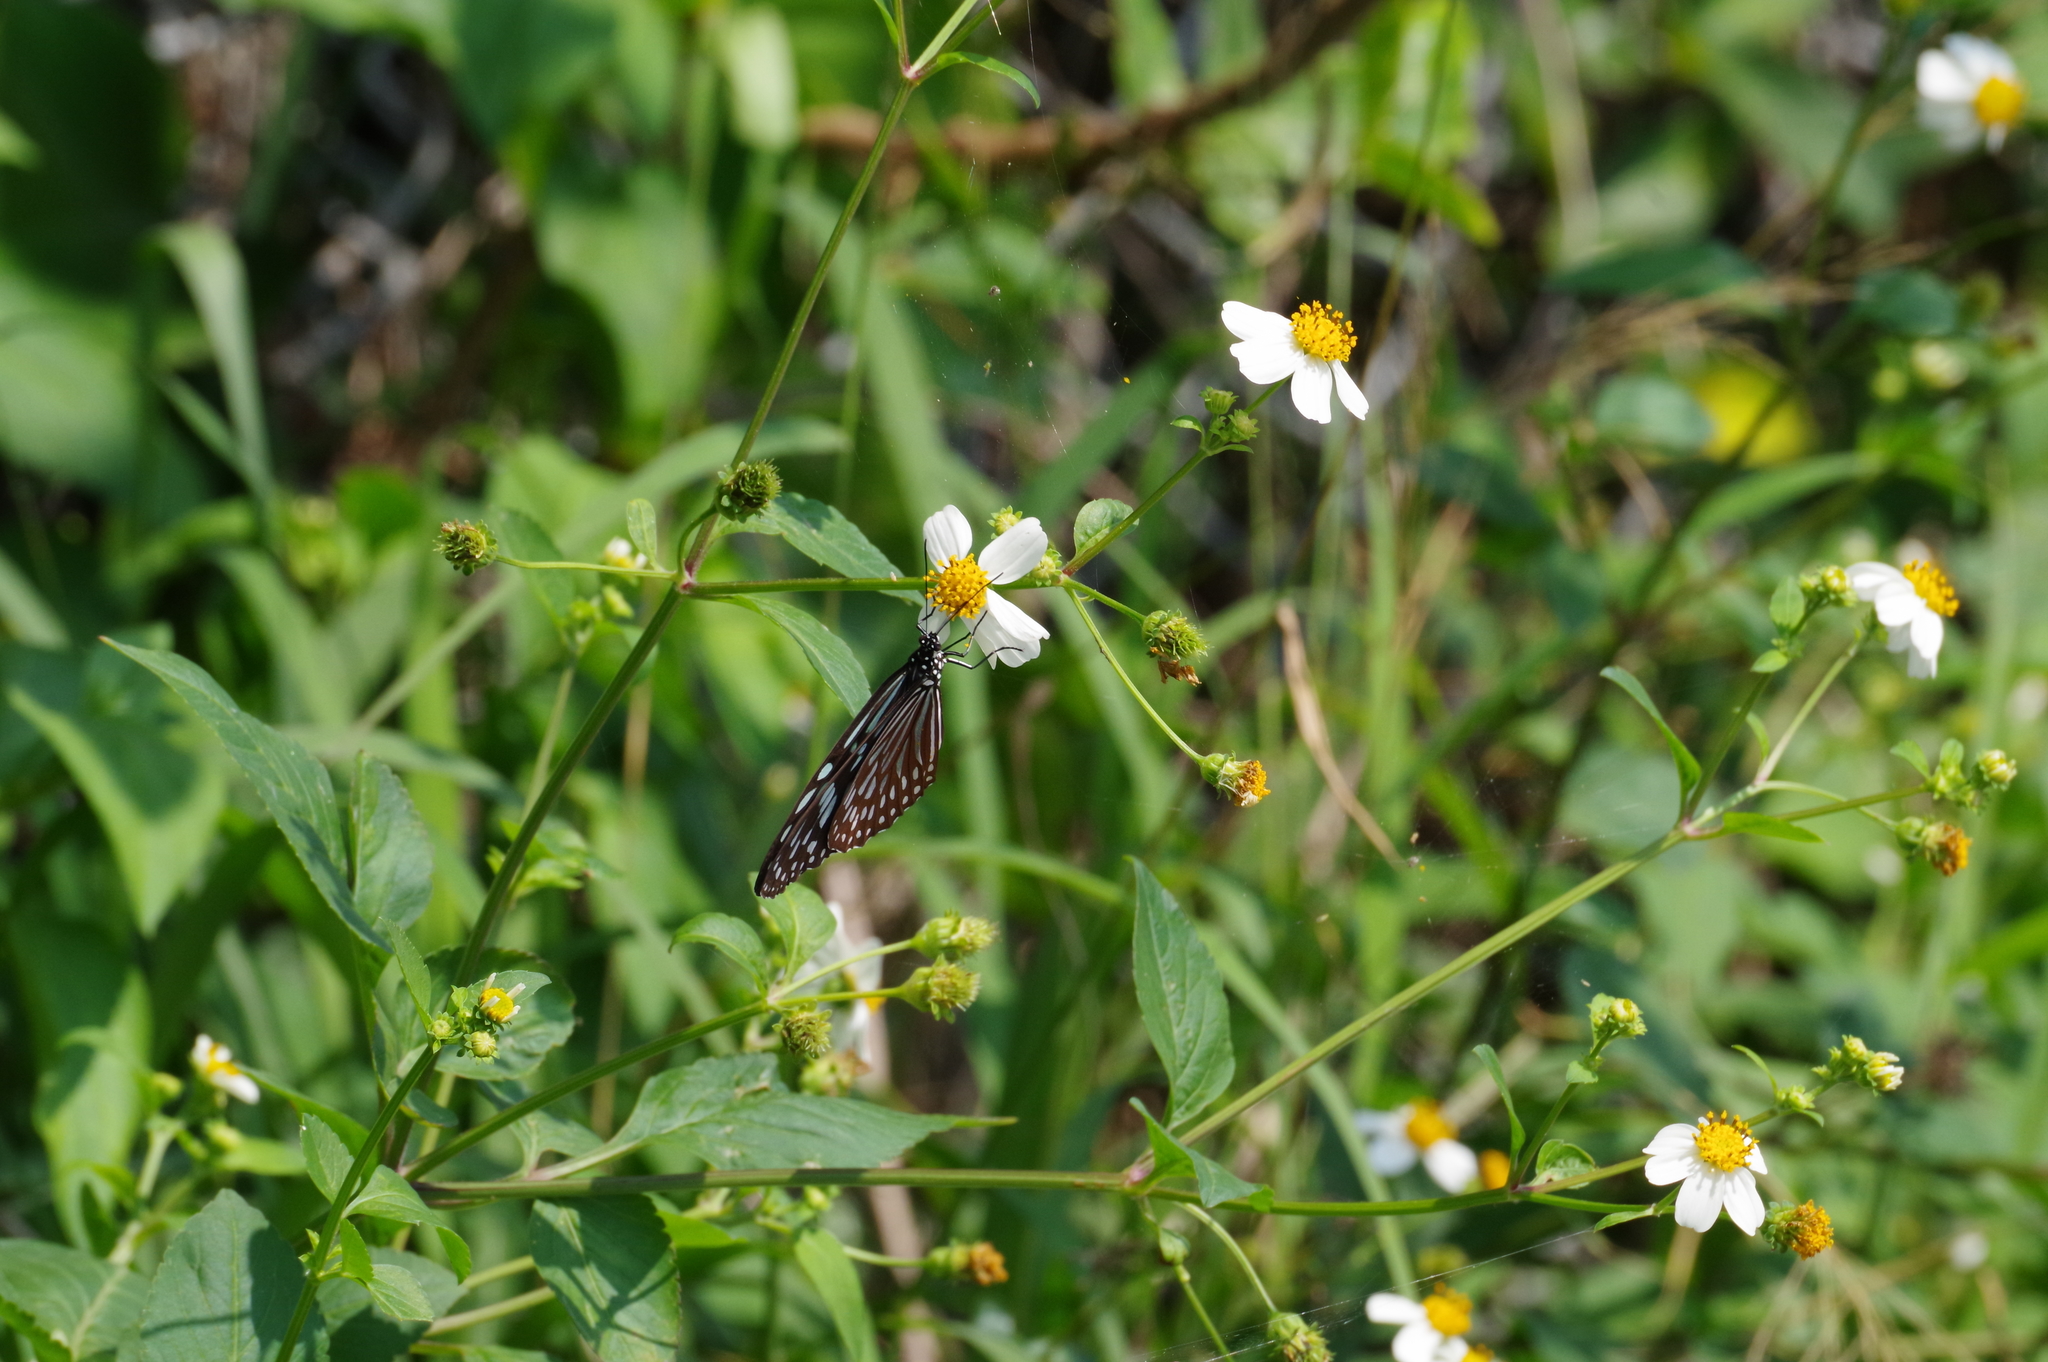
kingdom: Animalia
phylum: Arthropoda
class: Insecta
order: Lepidoptera
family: Nymphalidae
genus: Ideopsis
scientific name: Ideopsis similis
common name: Ceylon blue glassy tiger
